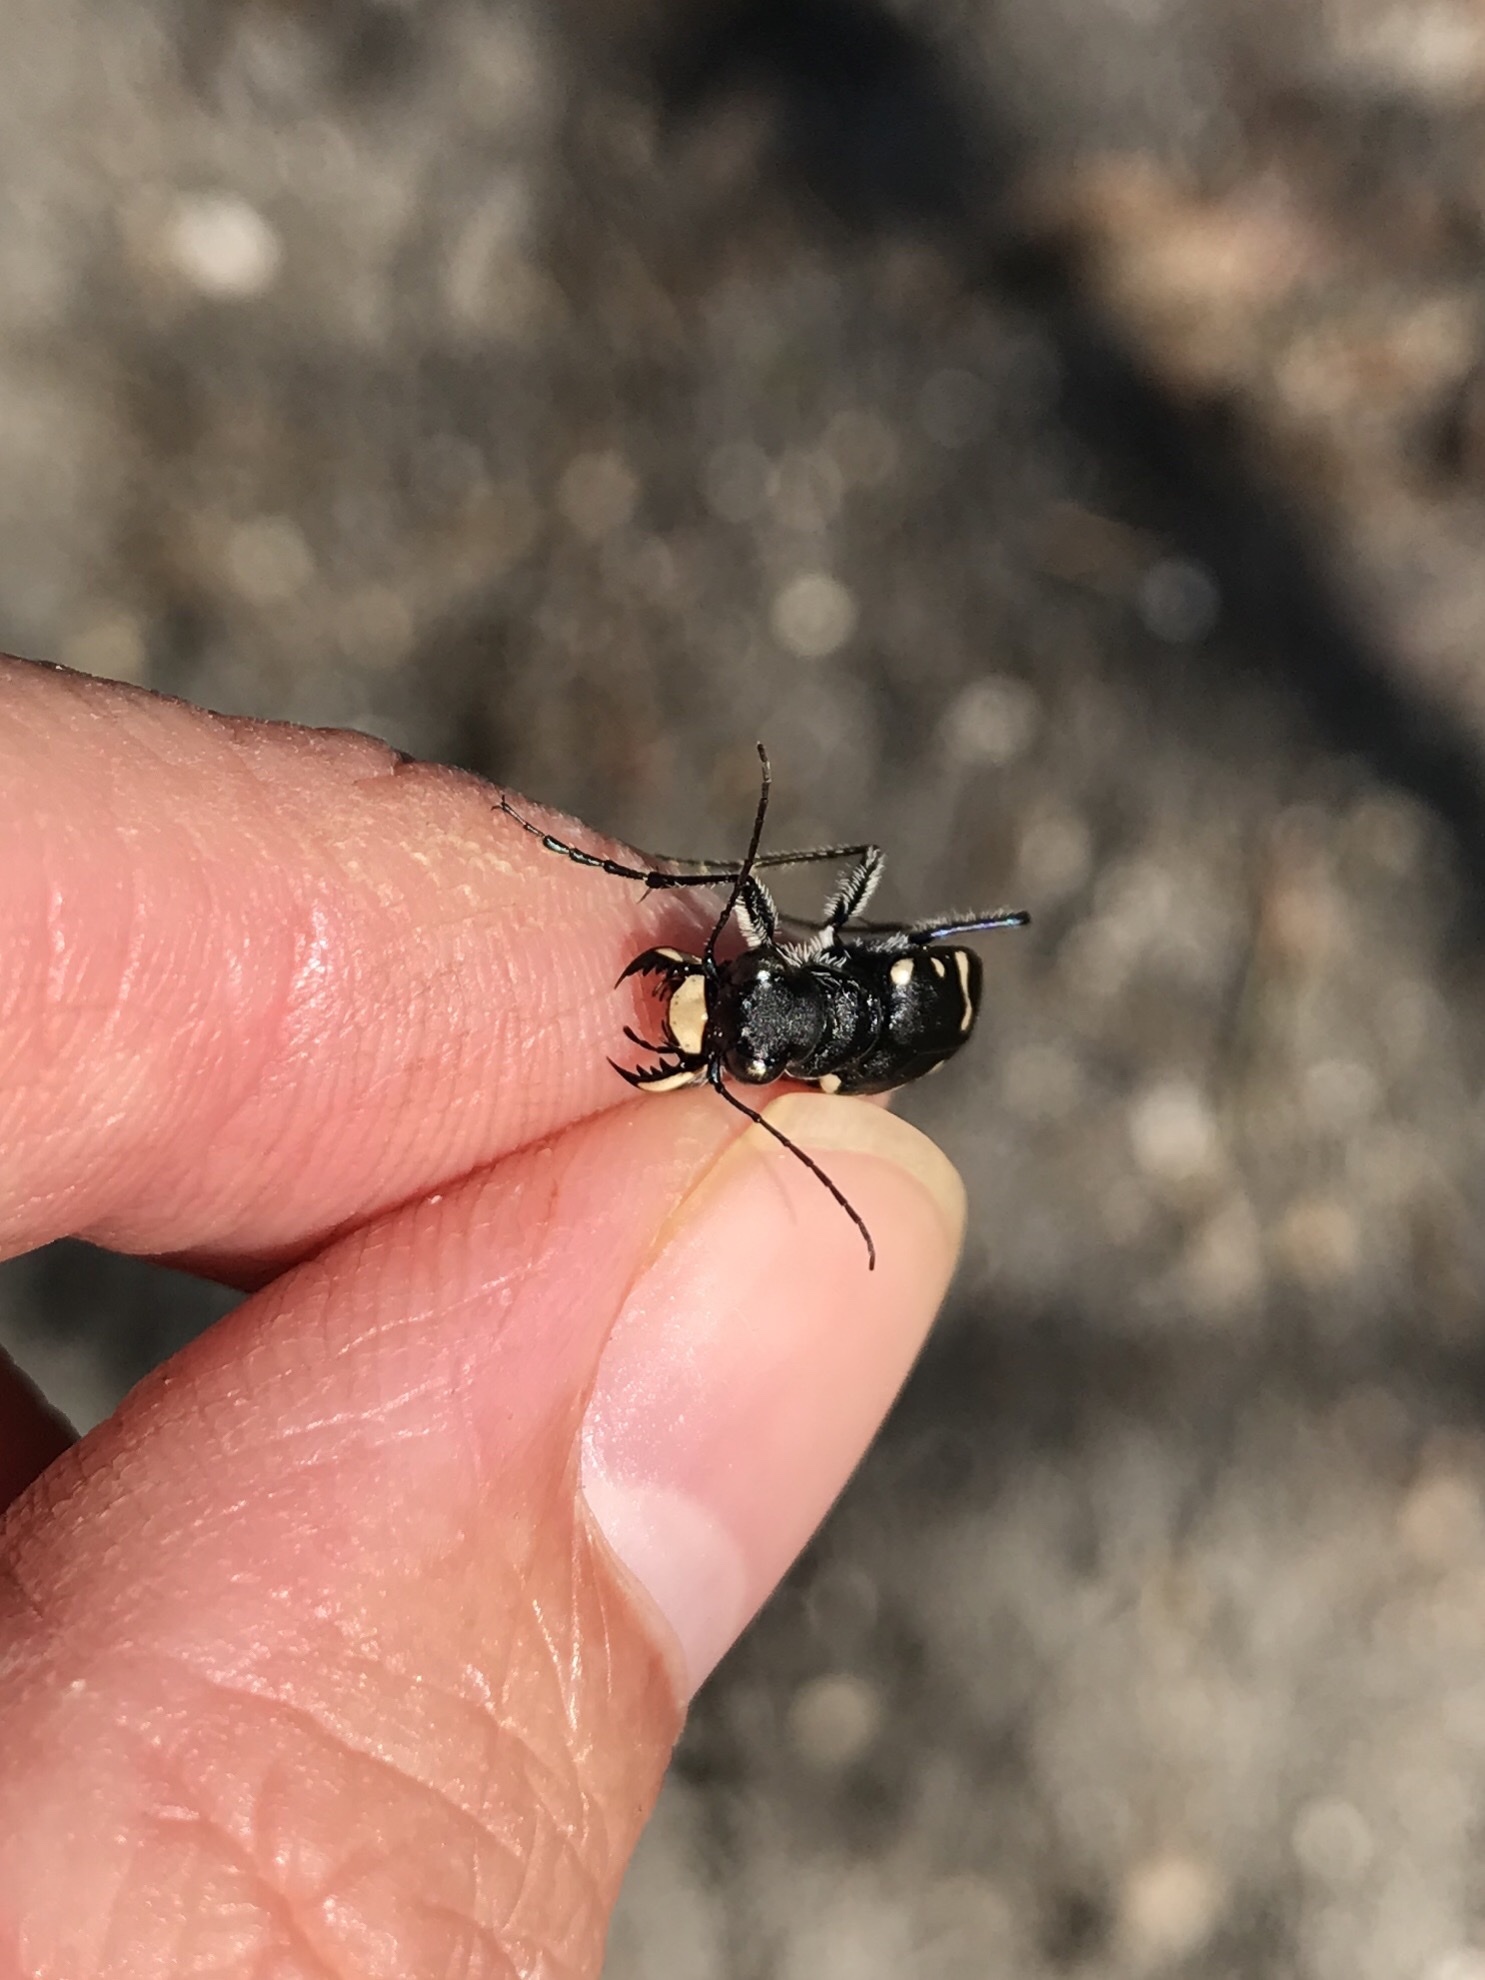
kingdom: Animalia
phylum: Arthropoda
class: Insecta
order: Coleoptera
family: Carabidae
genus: Cicindela
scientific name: Cicindela patruela
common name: Northern barrens tiger beetle
